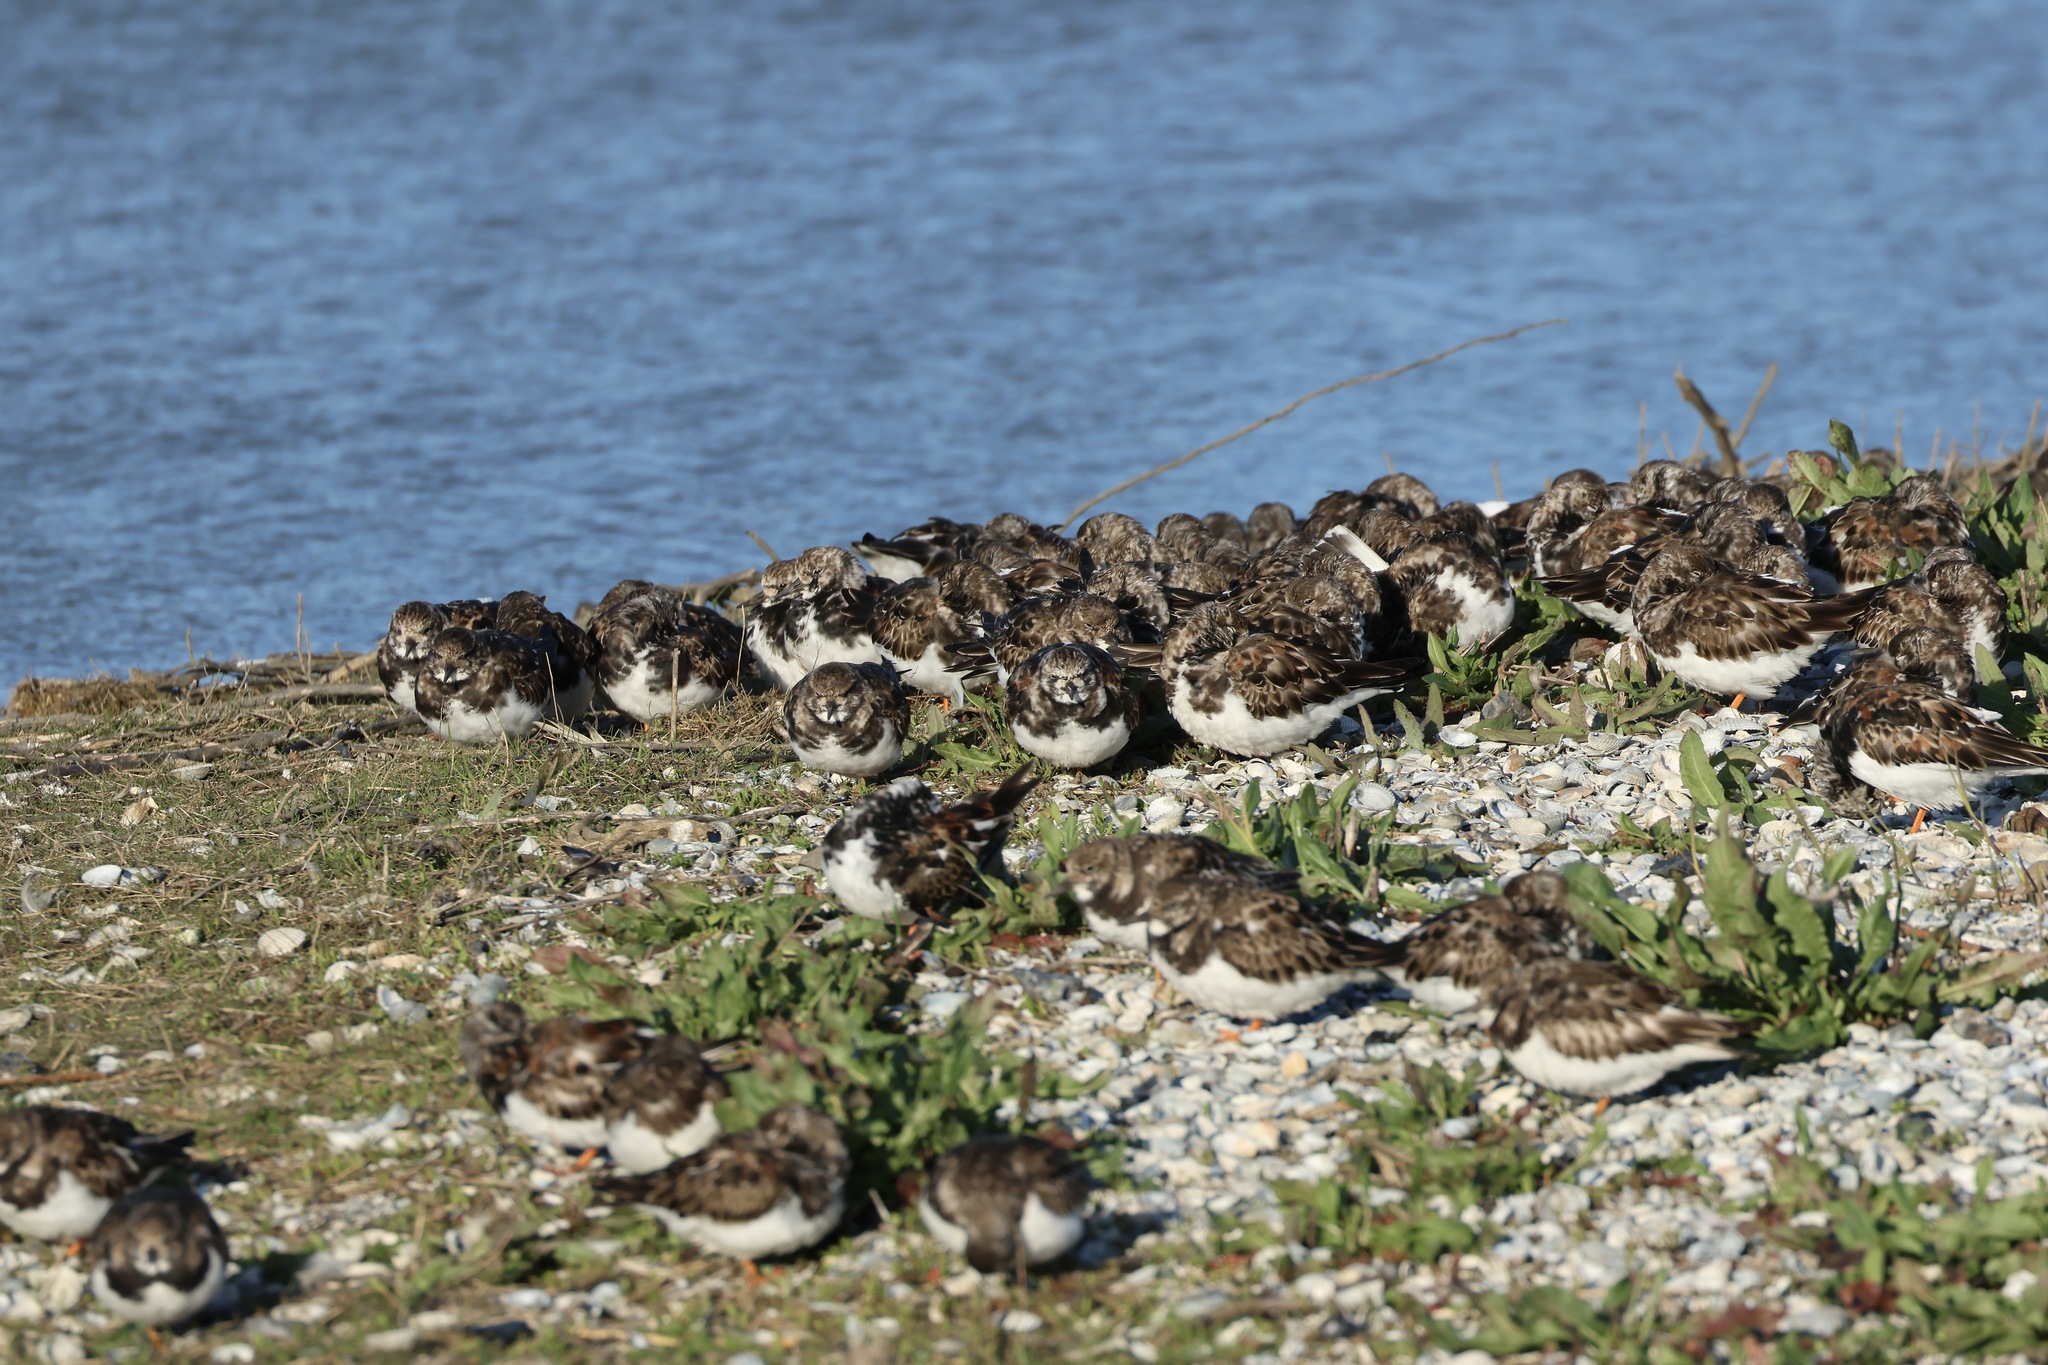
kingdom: Animalia
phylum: Chordata
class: Aves
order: Charadriiformes
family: Scolopacidae
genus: Arenaria
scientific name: Arenaria interpres
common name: Ruddy turnstone
